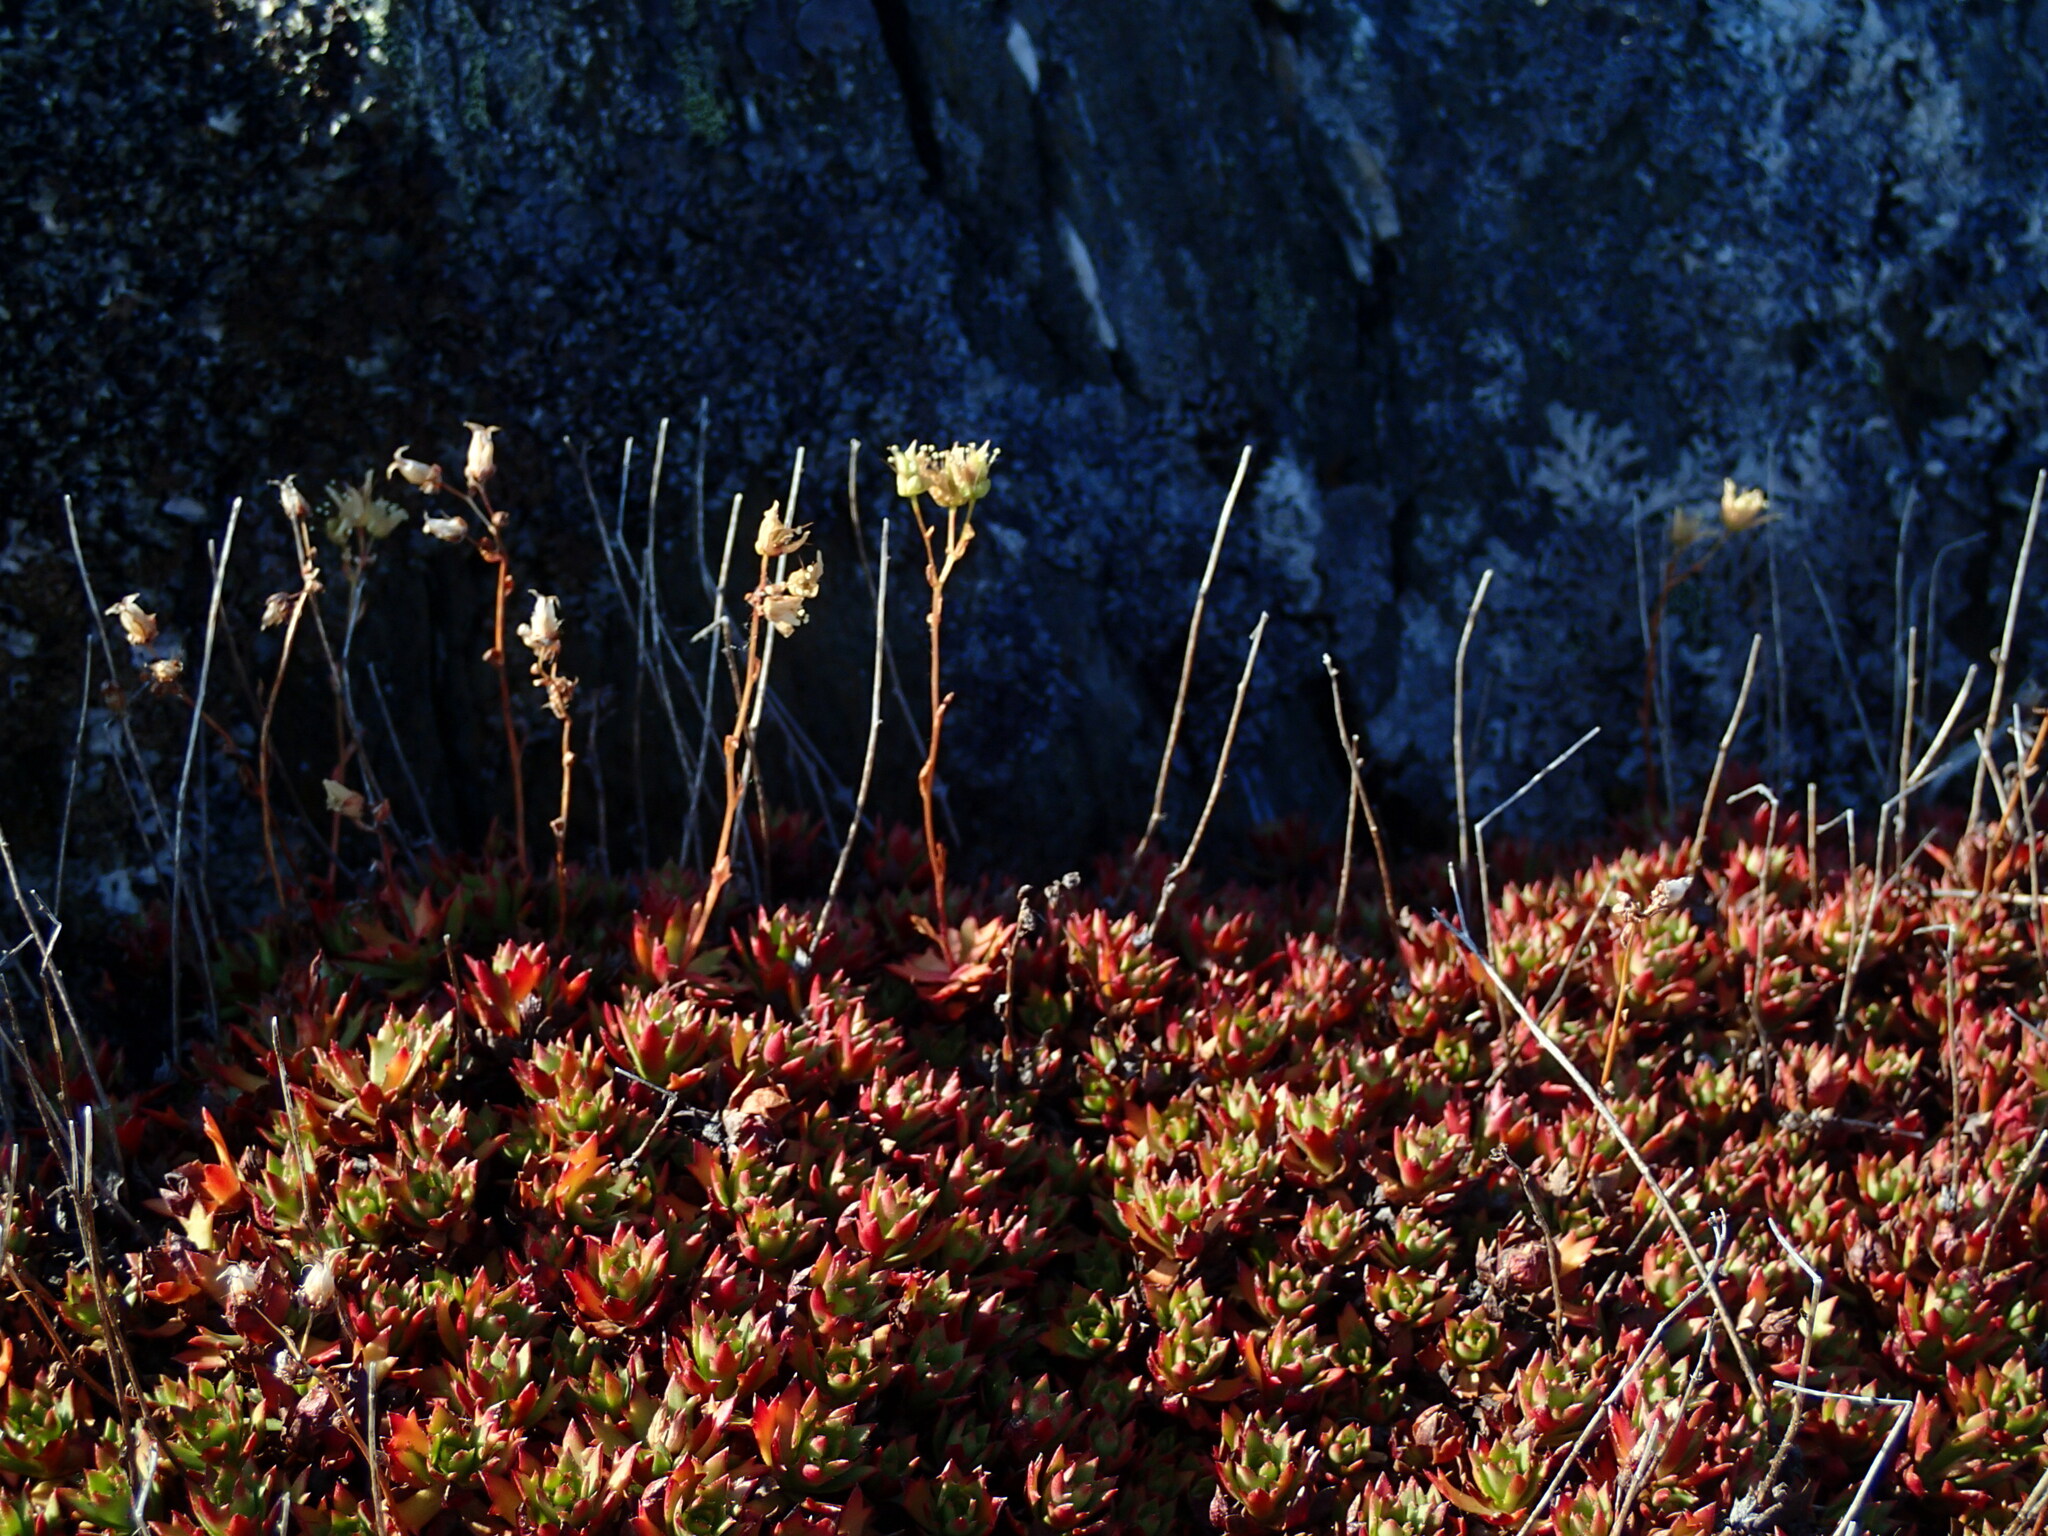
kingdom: Plantae
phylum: Tracheophyta
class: Magnoliopsida
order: Saxifragales
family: Saxifragaceae
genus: Saxifraga
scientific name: Saxifraga tricuspidata
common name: Prickly saxifrage
